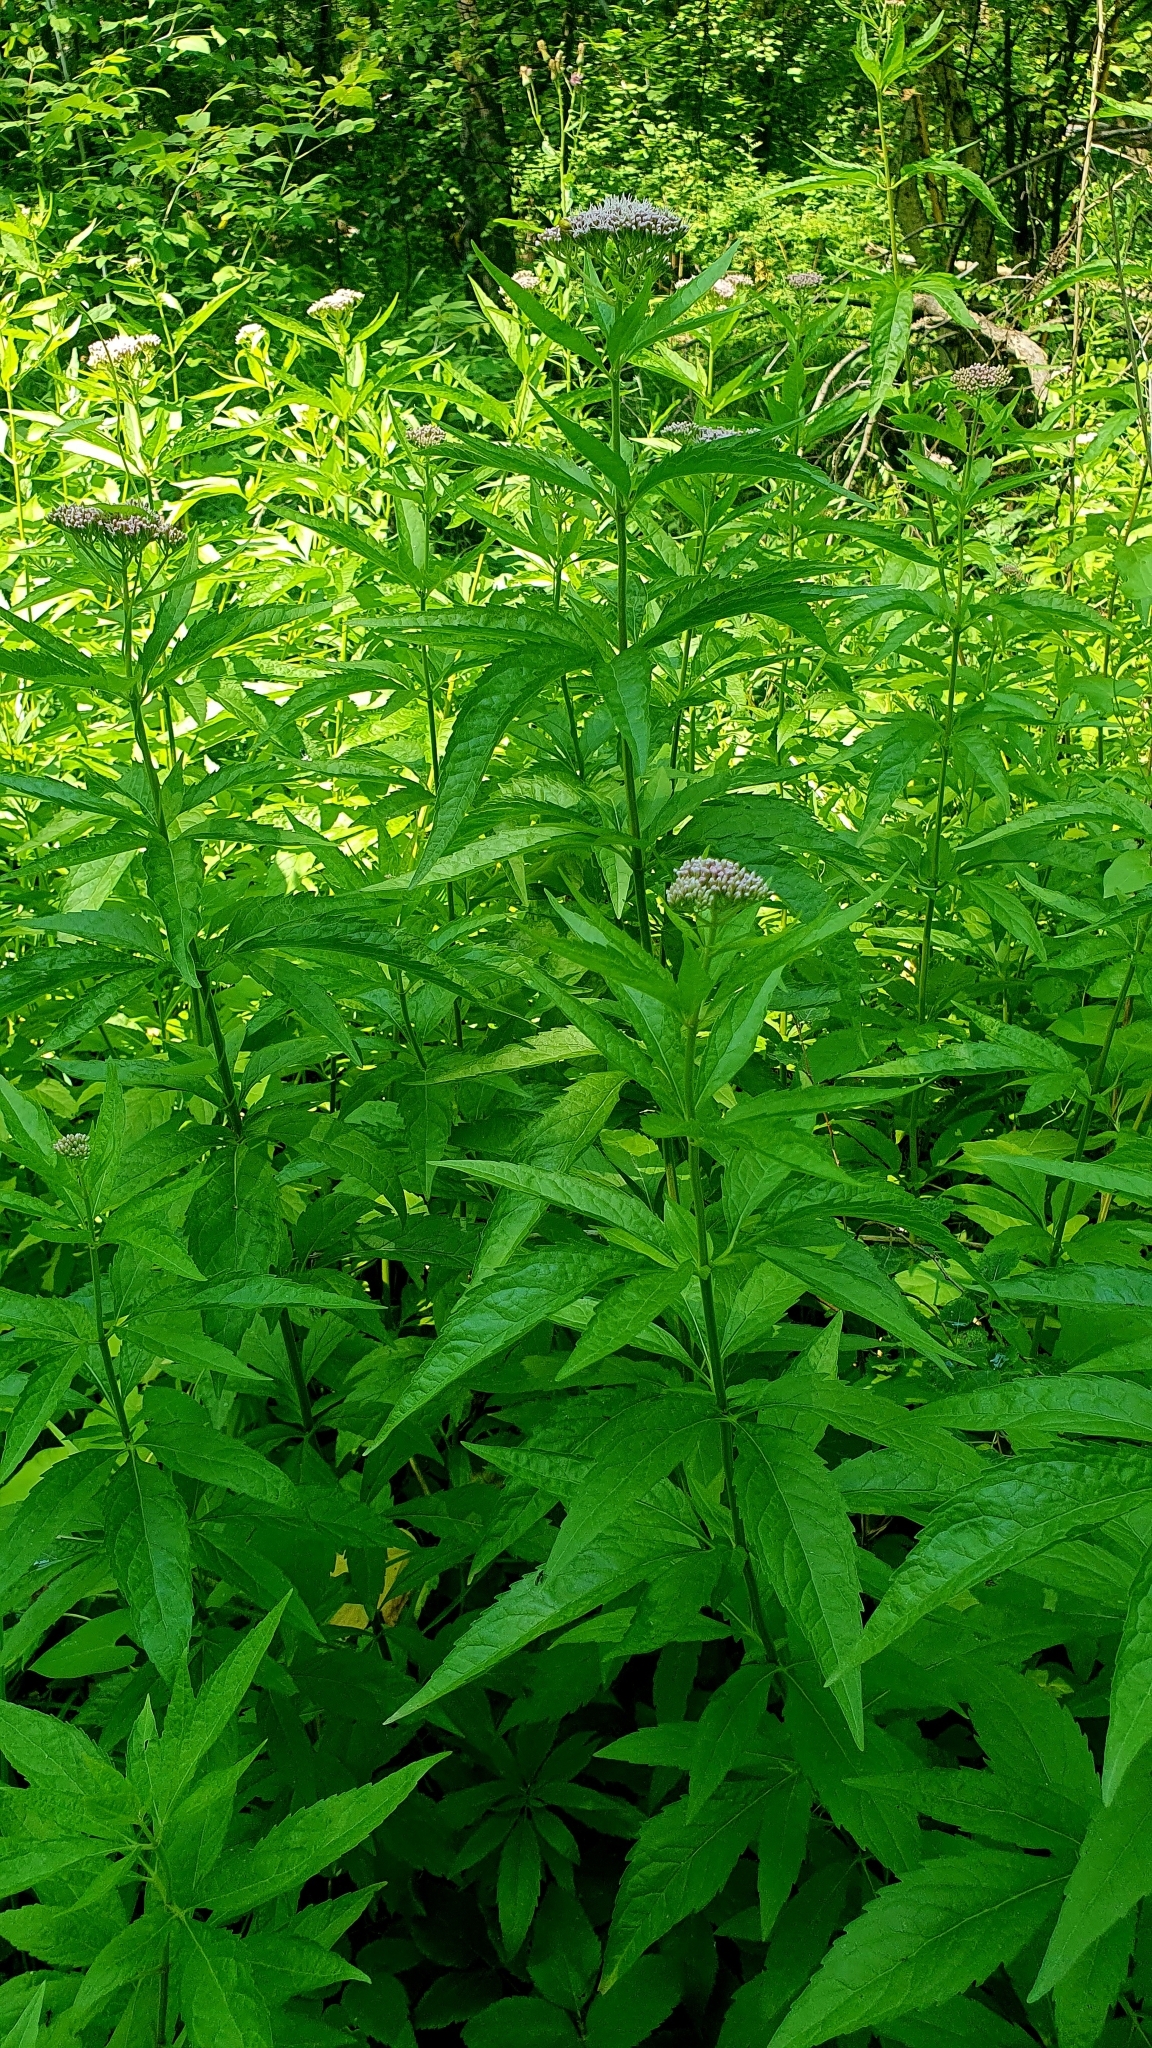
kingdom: Plantae
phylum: Tracheophyta
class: Magnoliopsida
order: Asterales
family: Asteraceae
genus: Eupatorium
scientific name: Eupatorium cannabinum
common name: Hemp-agrimony
